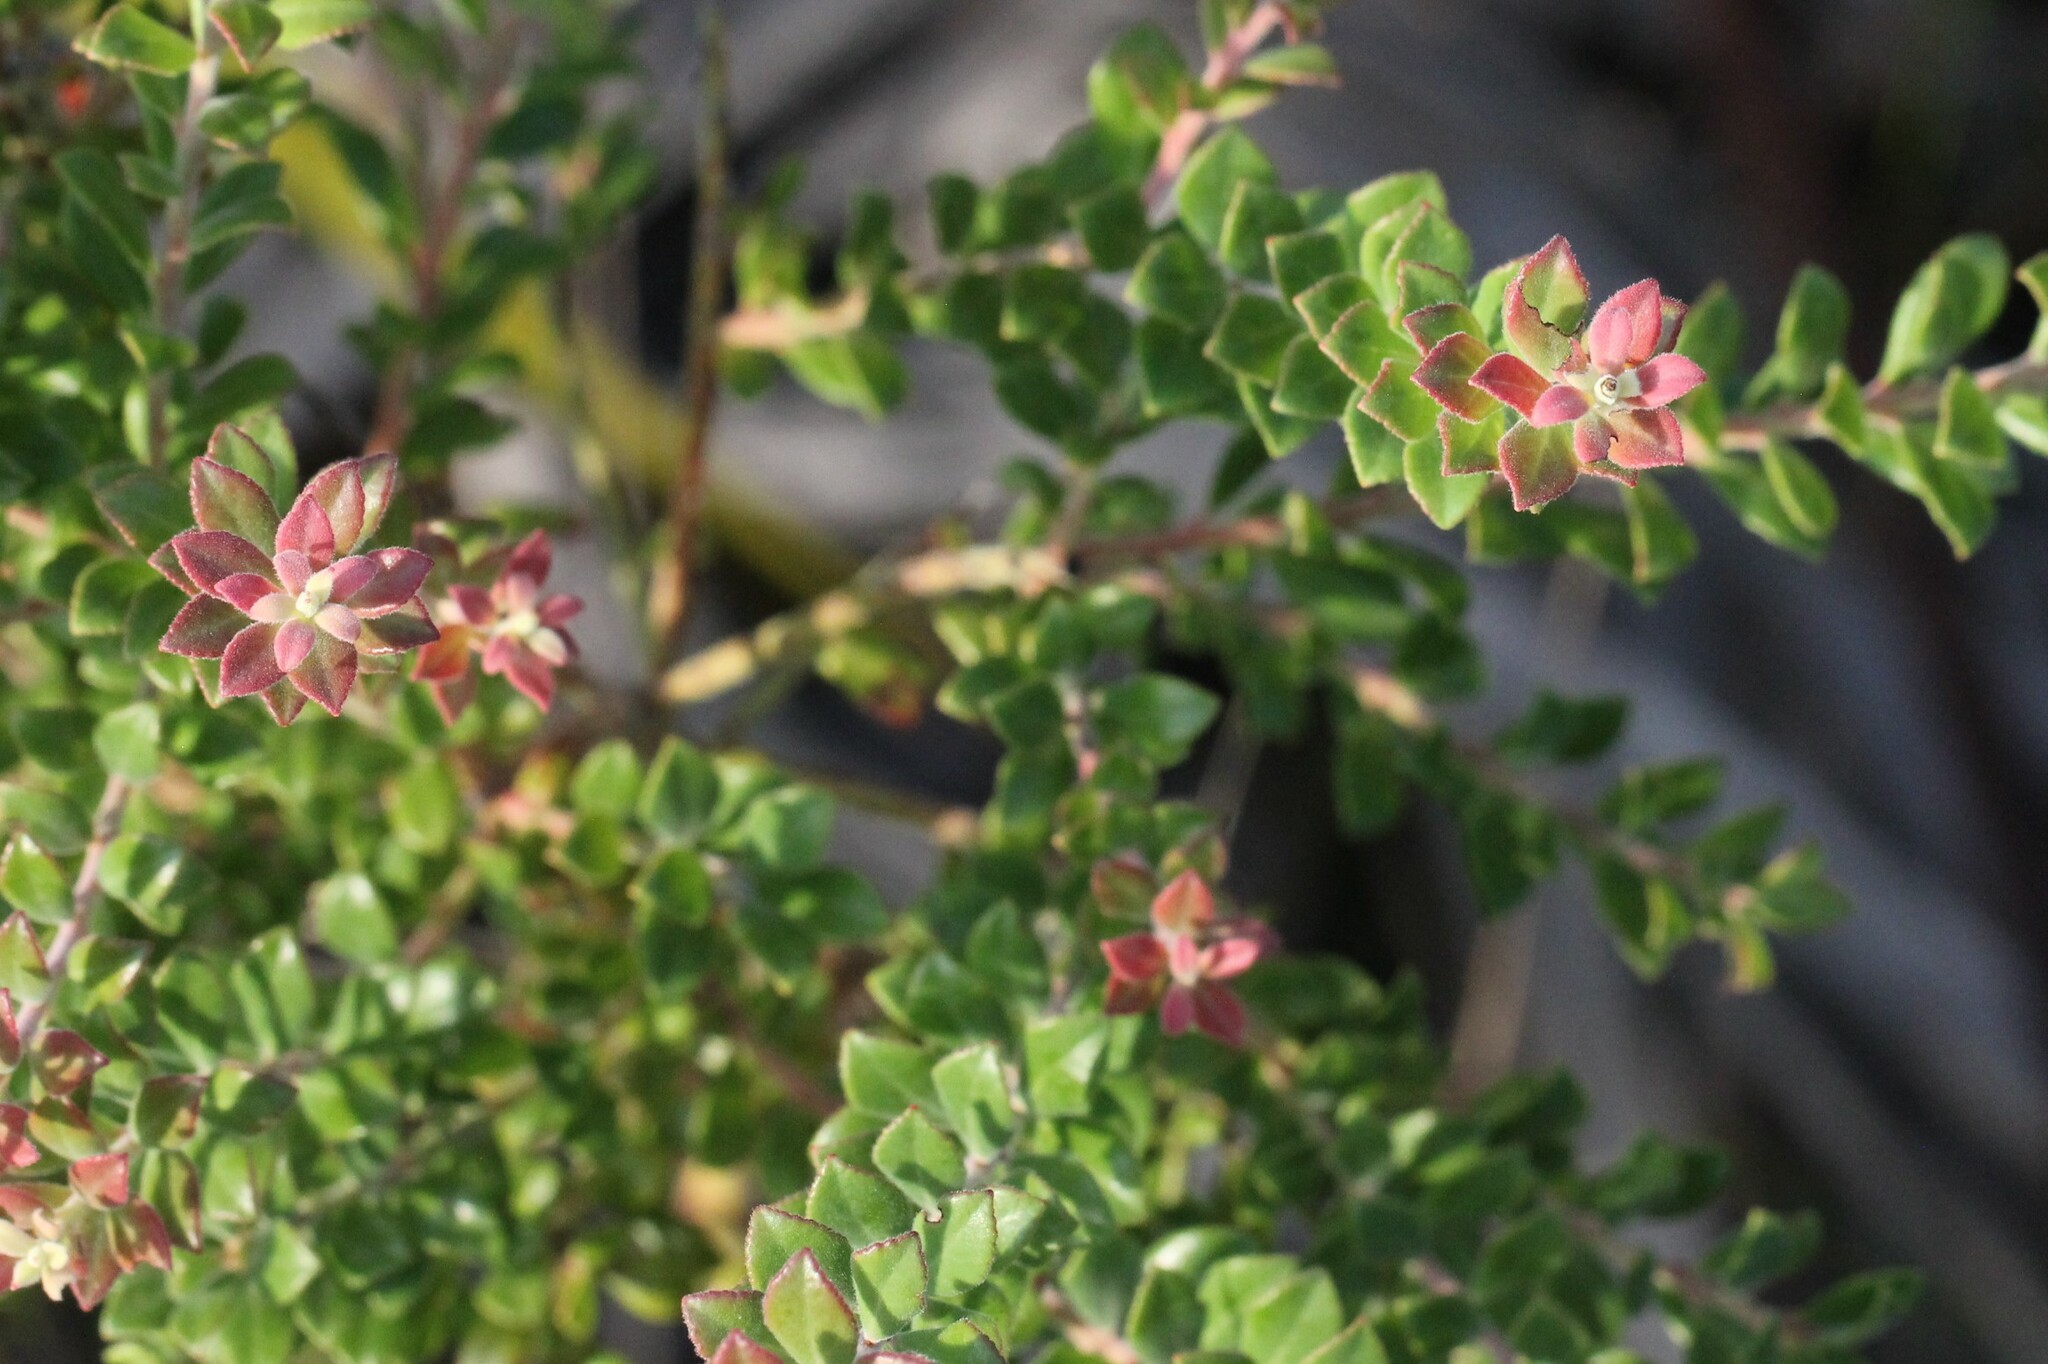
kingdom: Plantae
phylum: Tracheophyta
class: Magnoliopsida
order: Ericales
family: Ericaceae
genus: Vaccinium
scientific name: Vaccinium myrsinites
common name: Evergreen blueberry
